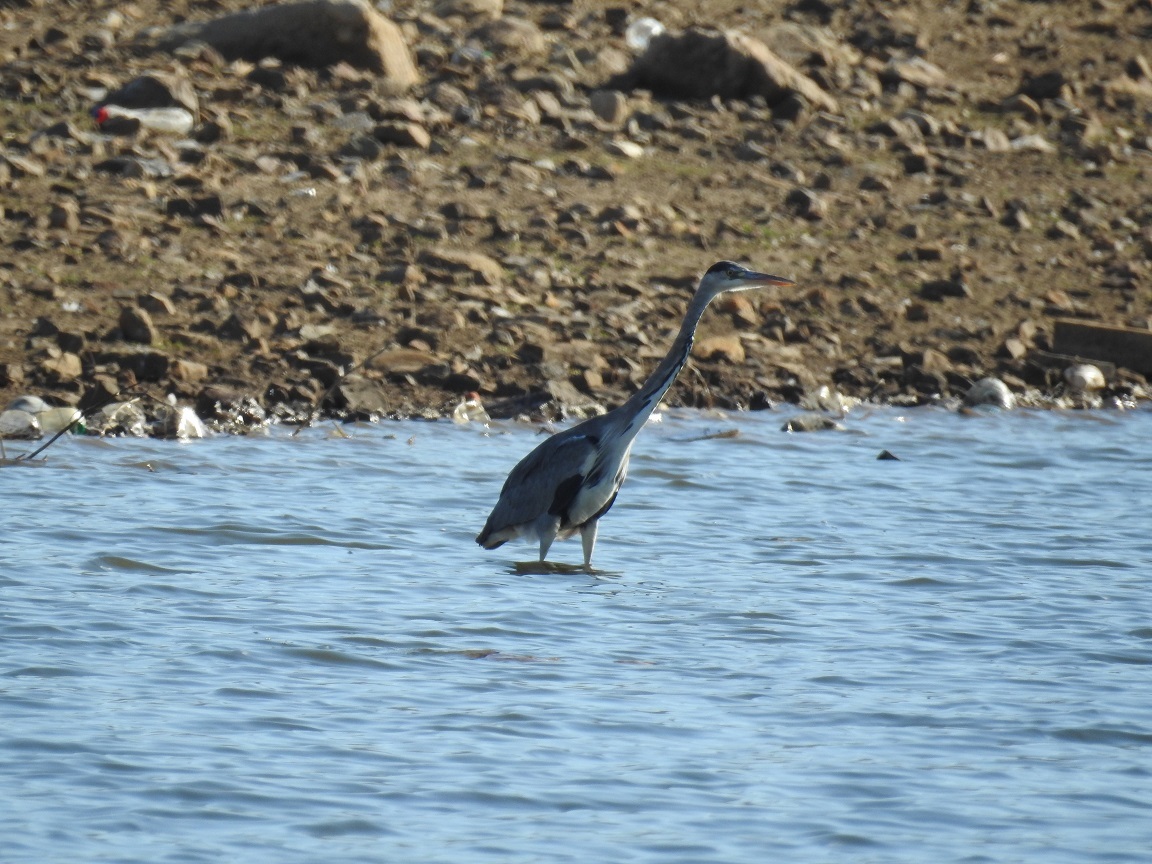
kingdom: Animalia
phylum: Chordata
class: Aves
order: Pelecaniformes
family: Ardeidae
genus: Ardea
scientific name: Ardea cinerea
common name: Grey heron
